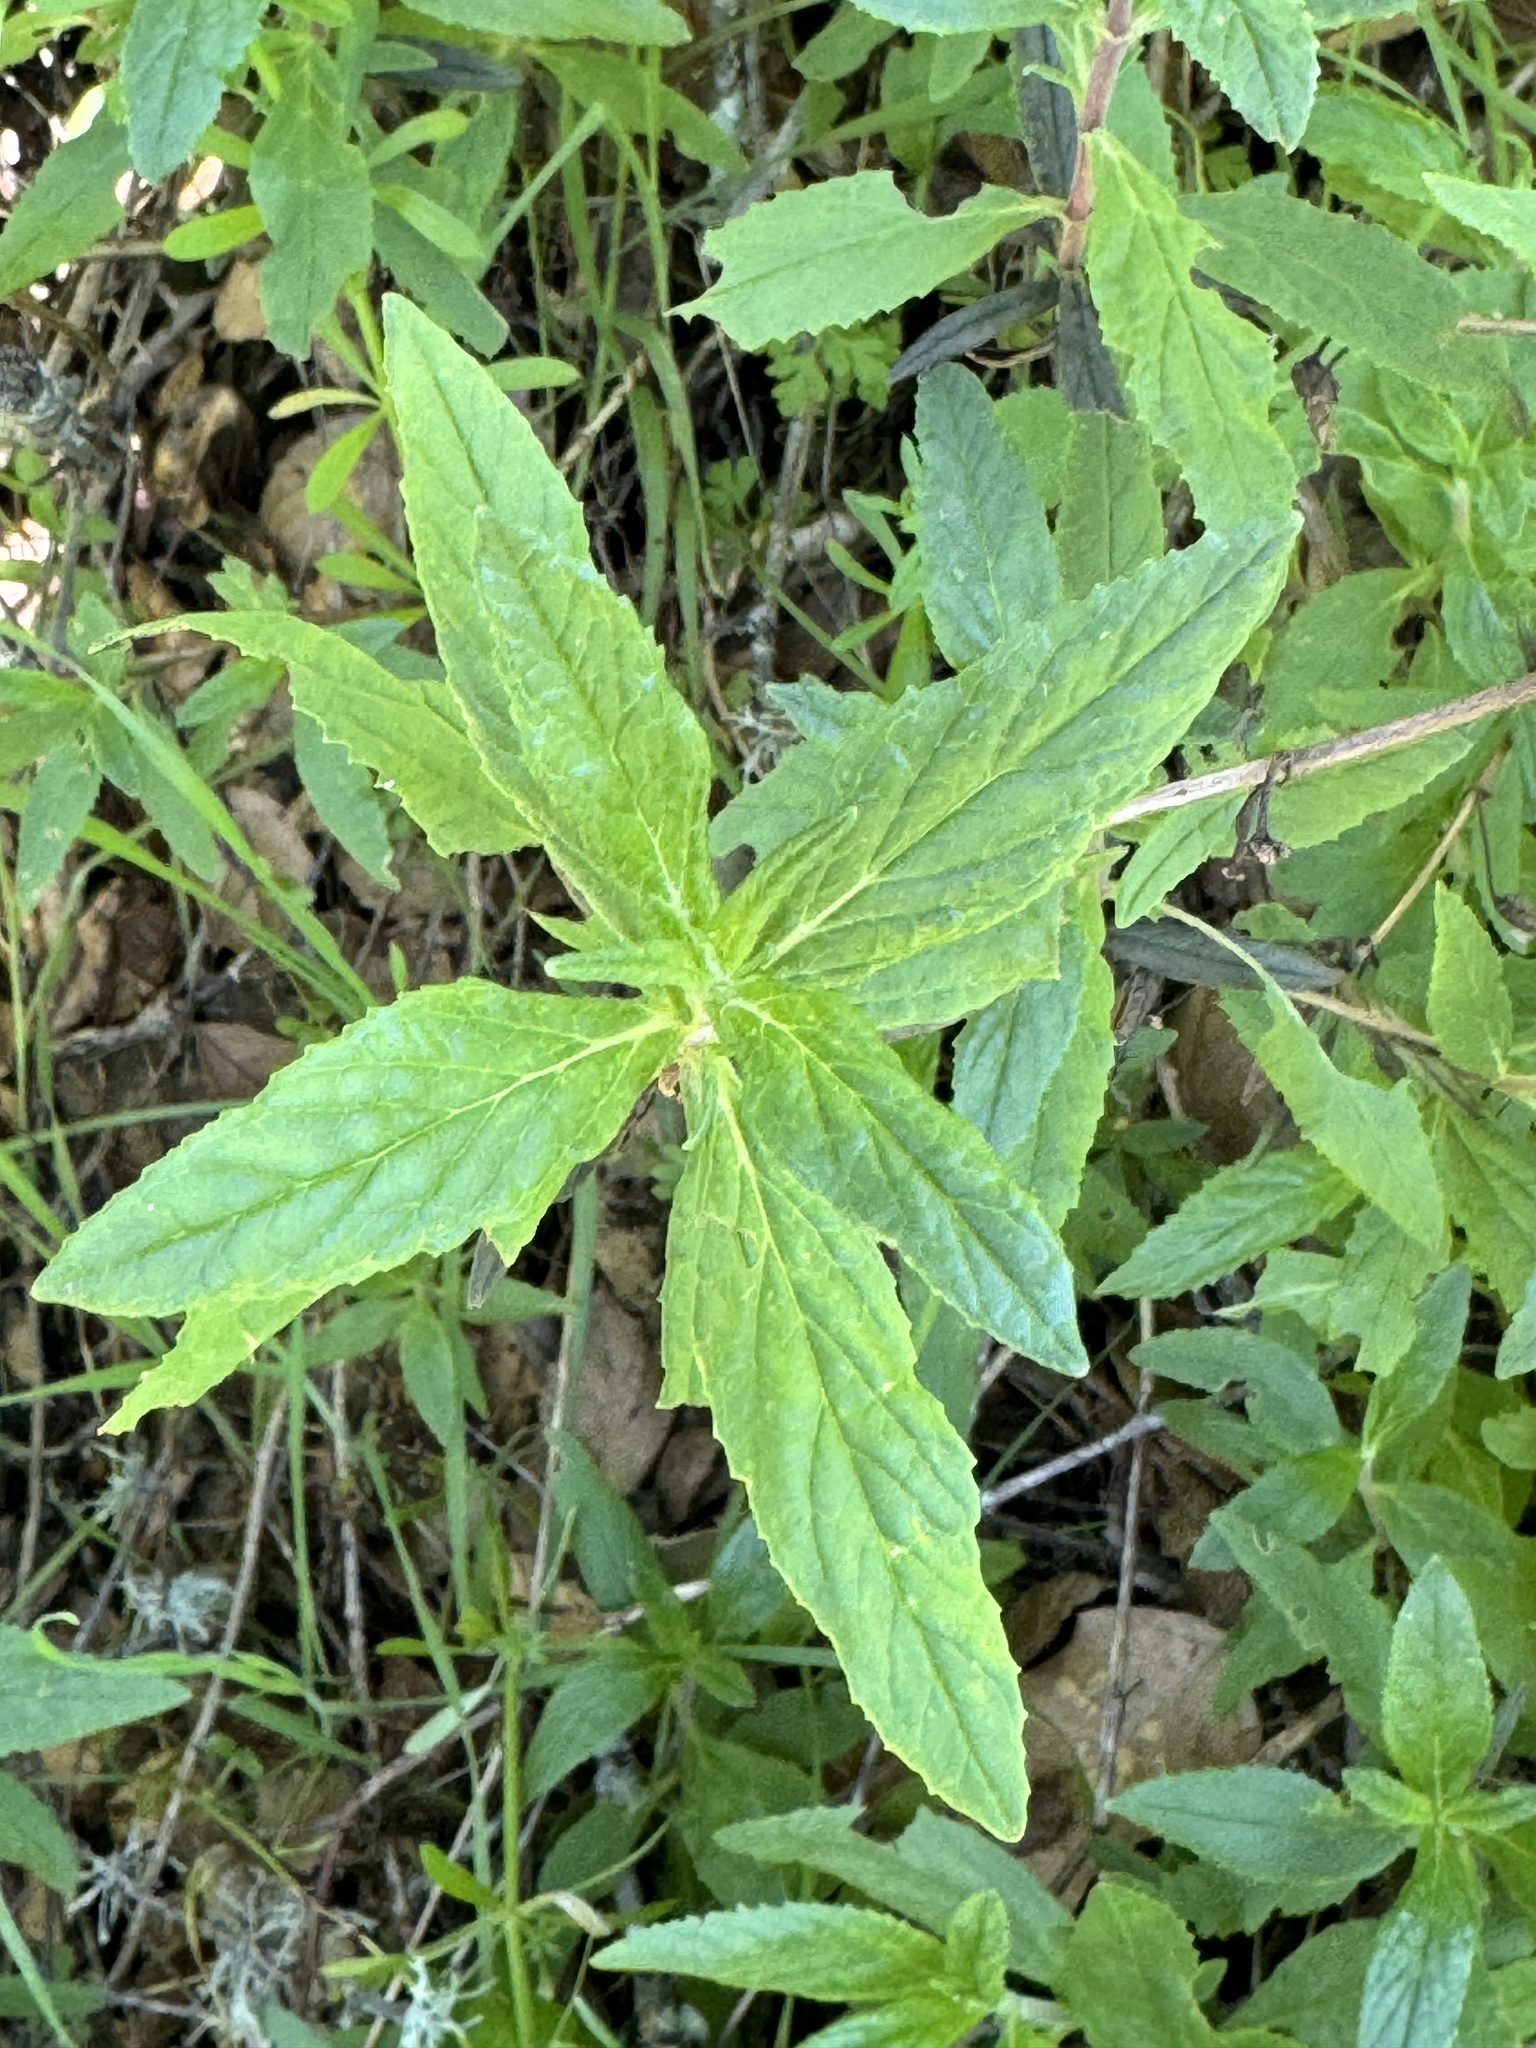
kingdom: Plantae
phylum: Tracheophyta
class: Magnoliopsida
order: Lamiales
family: Phrymaceae
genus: Diplacus
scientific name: Diplacus aurantiacus
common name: Bush monkey-flower
